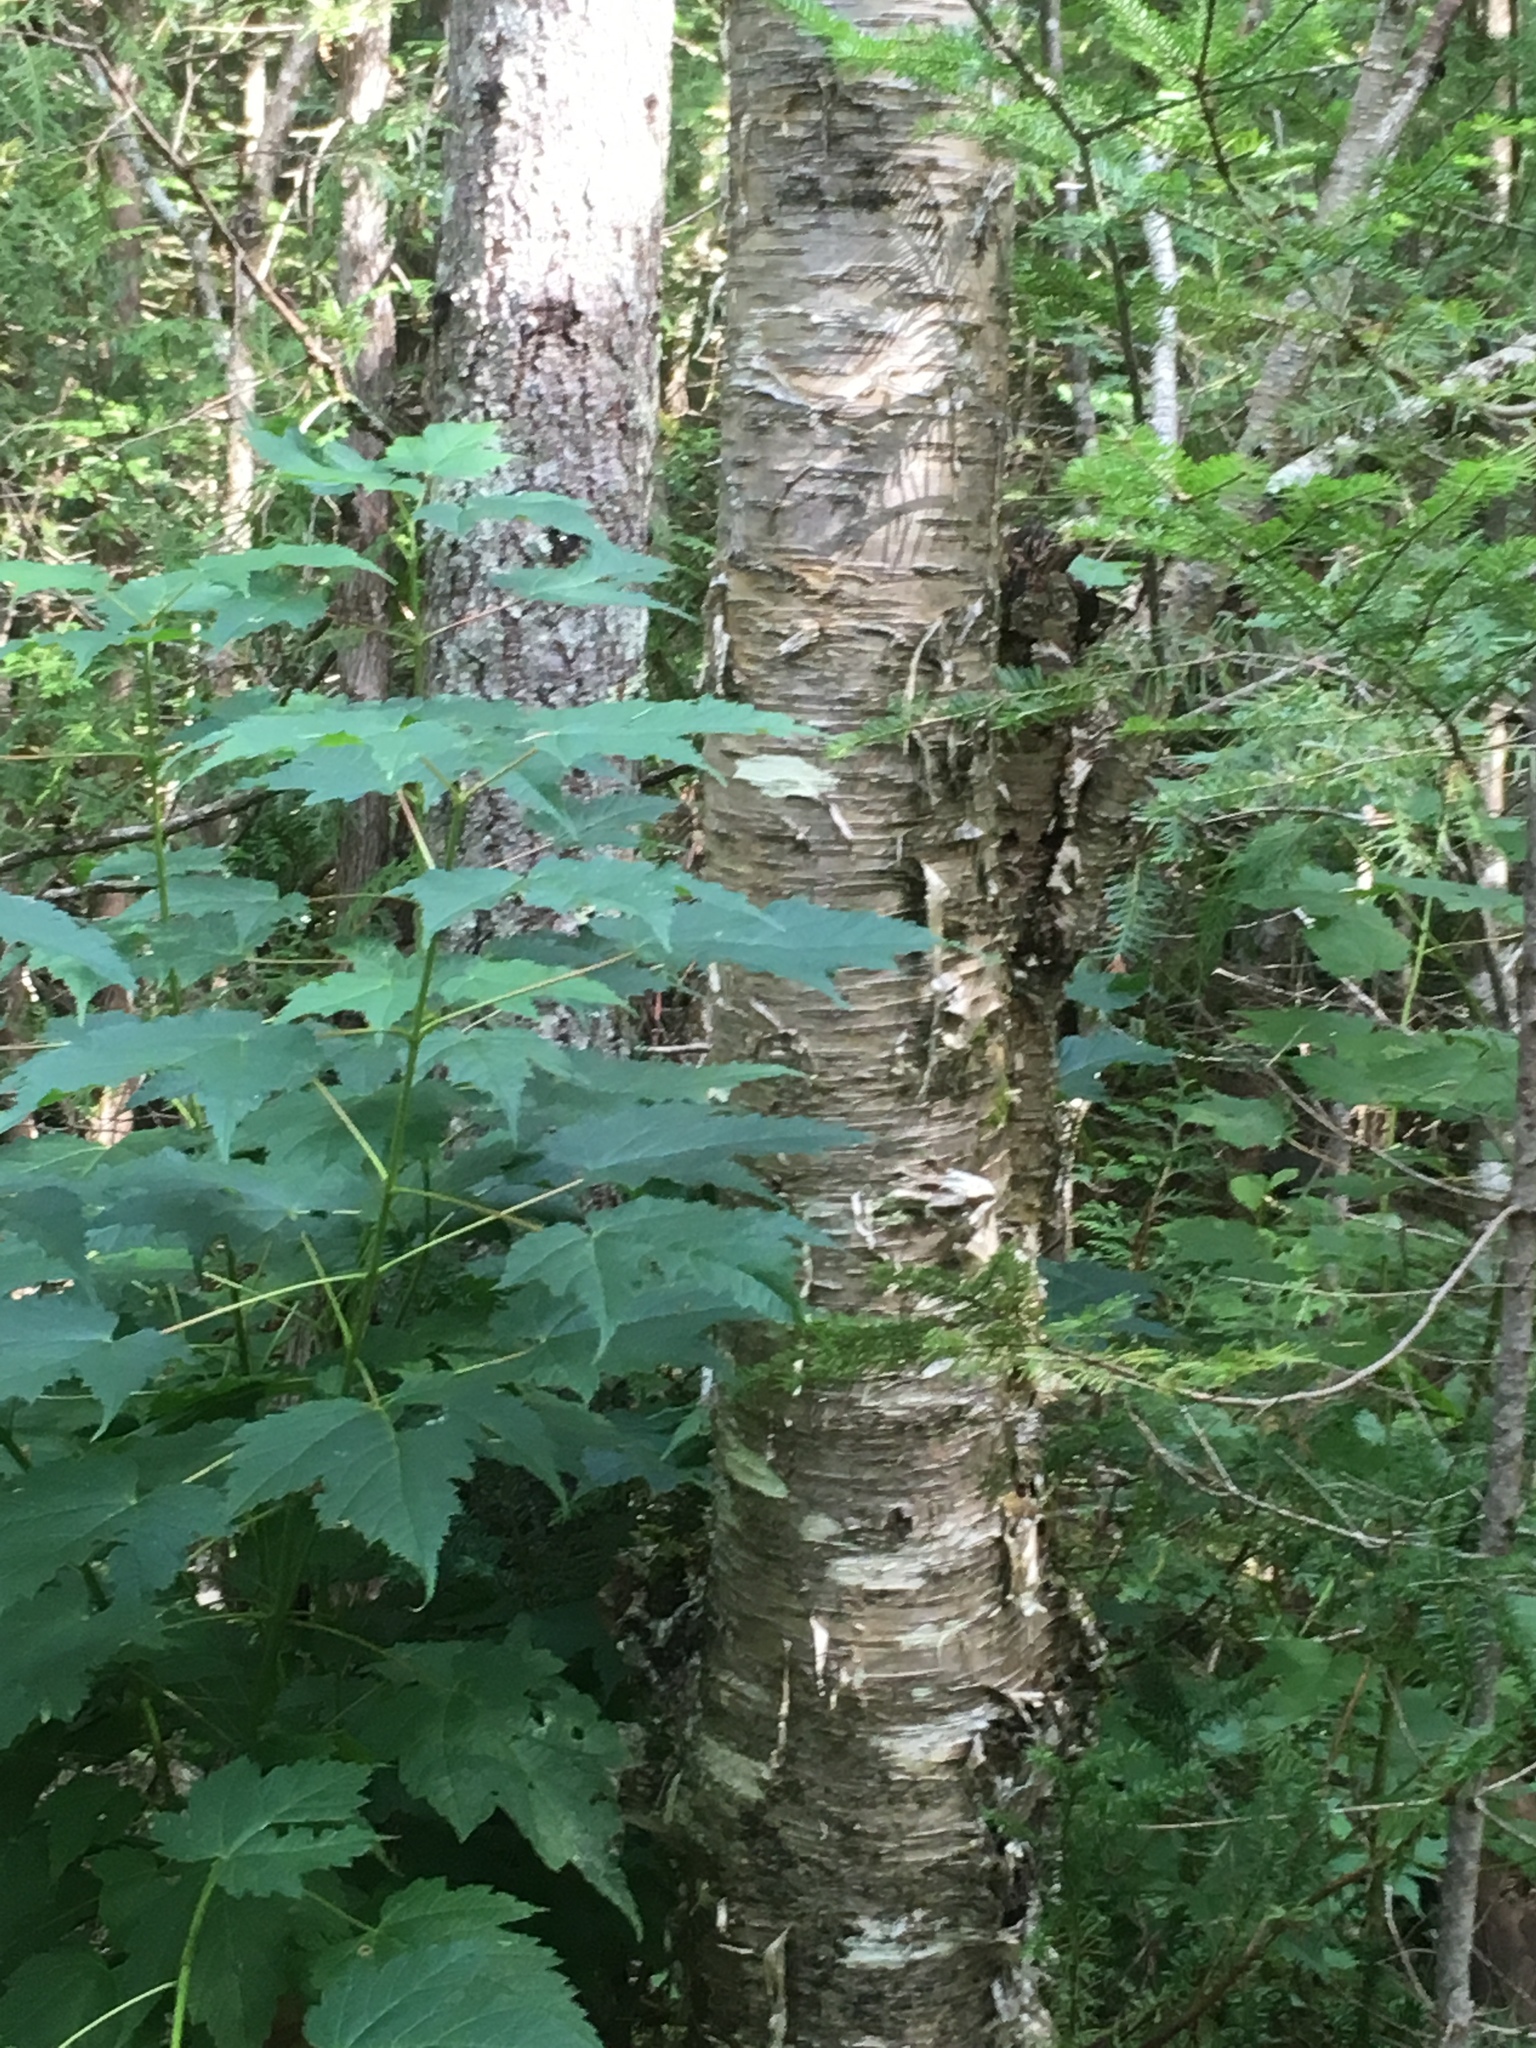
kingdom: Plantae
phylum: Tracheophyta
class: Magnoliopsida
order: Fagales
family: Betulaceae
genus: Betula
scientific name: Betula alleghaniensis
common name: Yellow birch
